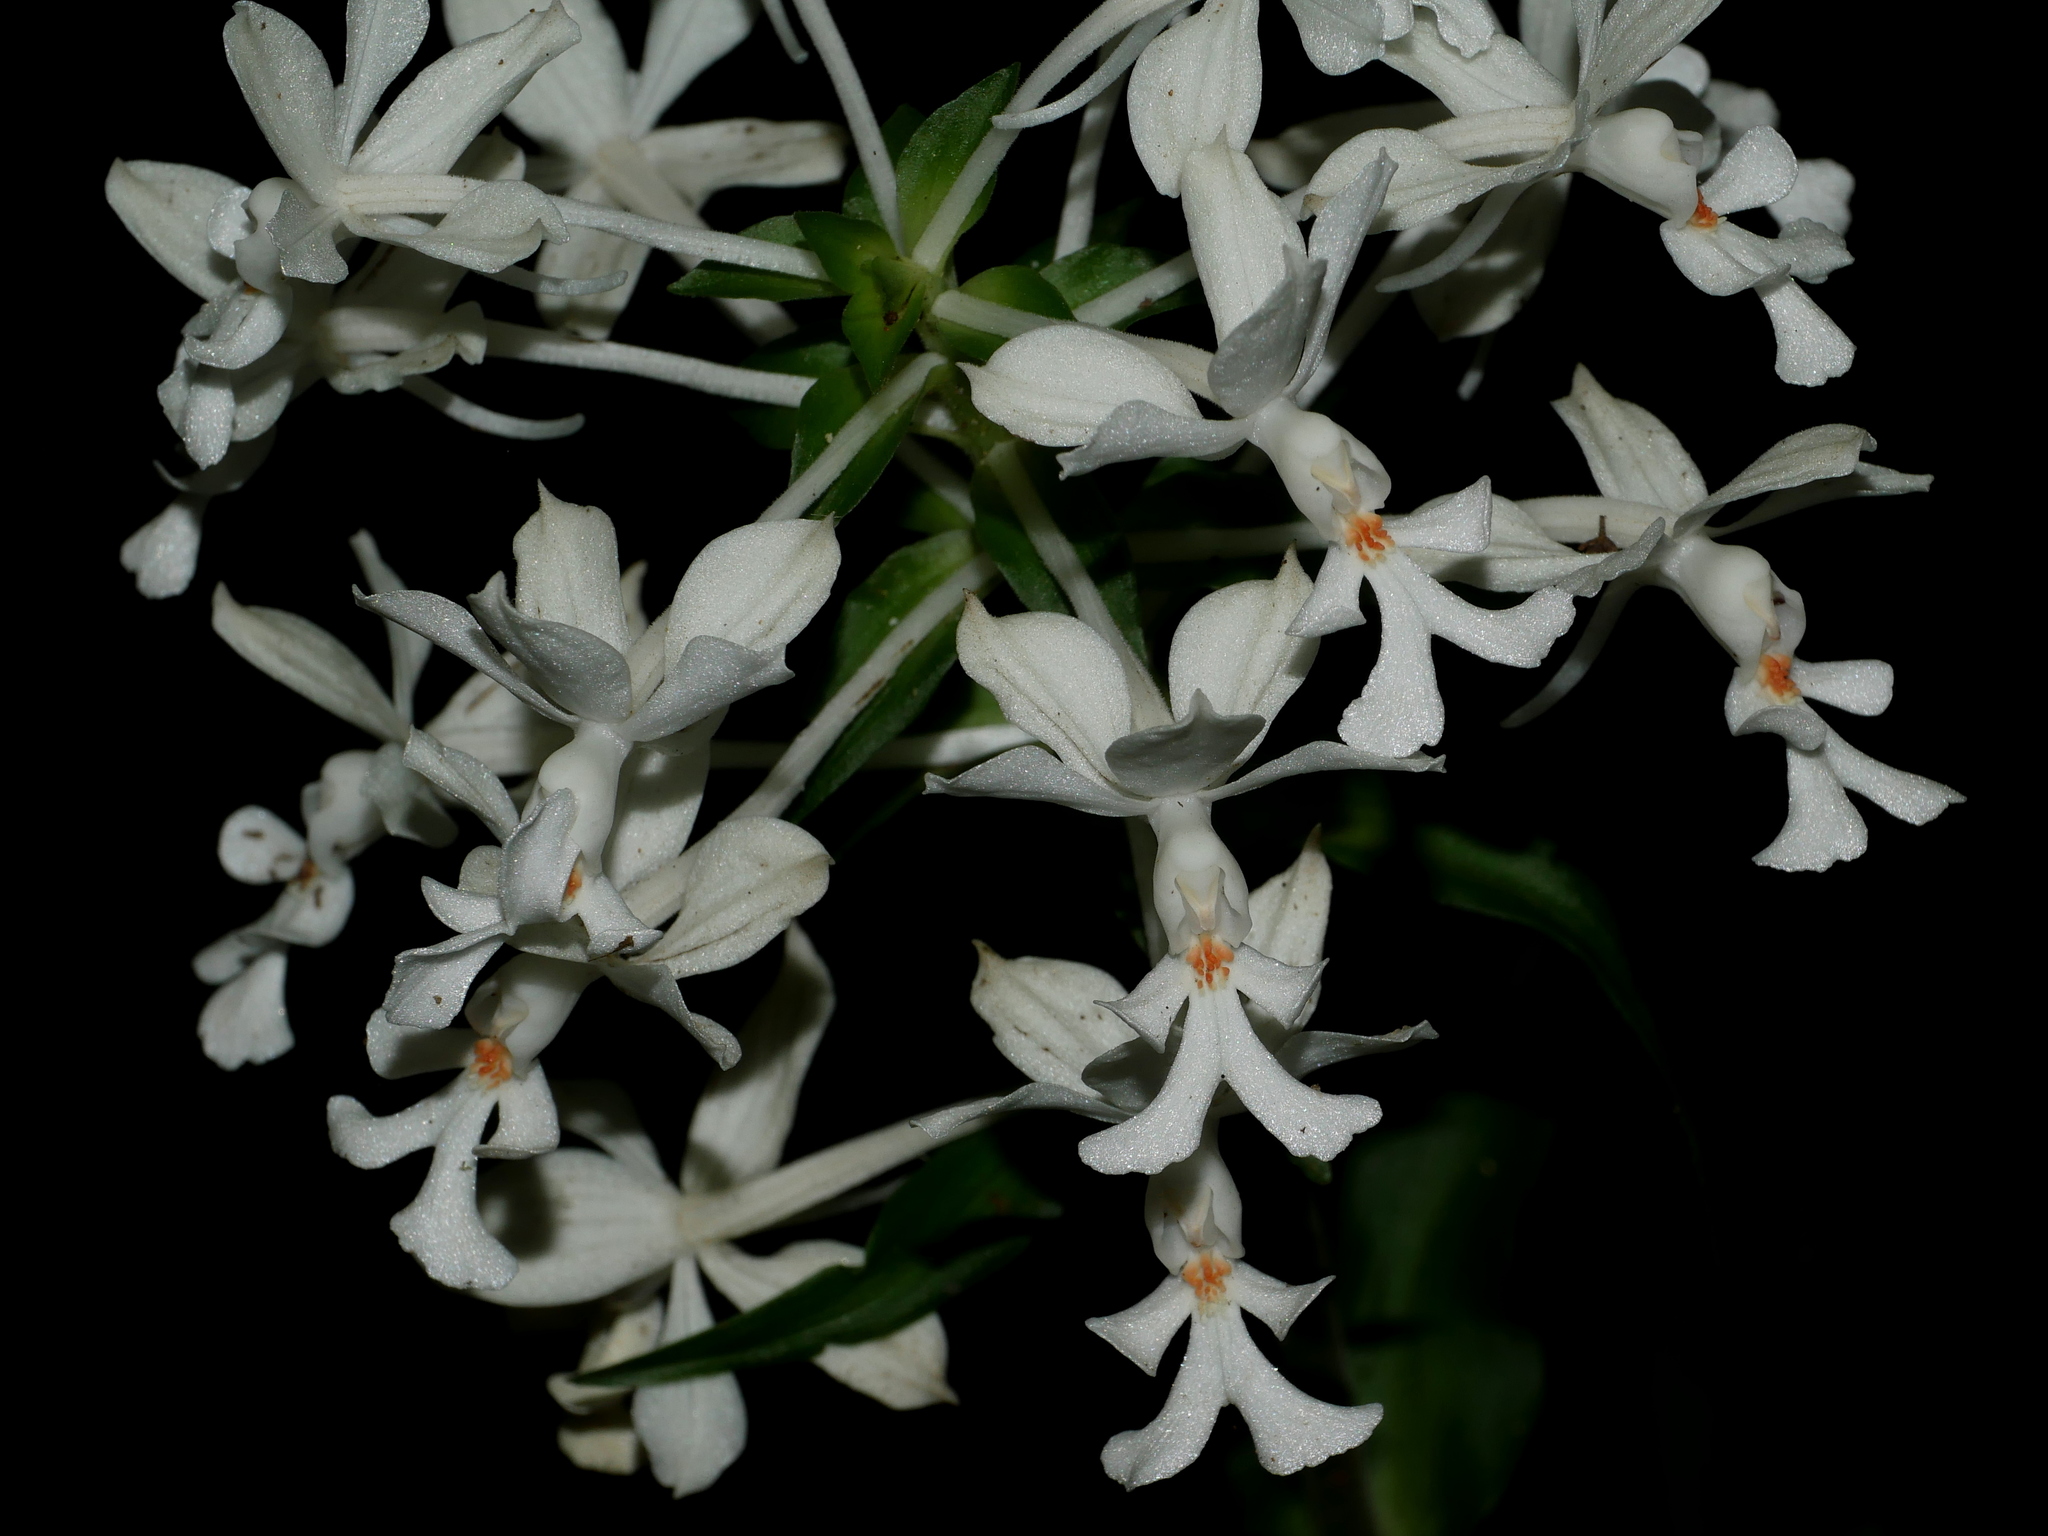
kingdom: Plantae
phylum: Tracheophyta
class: Liliopsida
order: Asparagales
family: Orchidaceae
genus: Calanthe
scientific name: Calanthe triplicata
